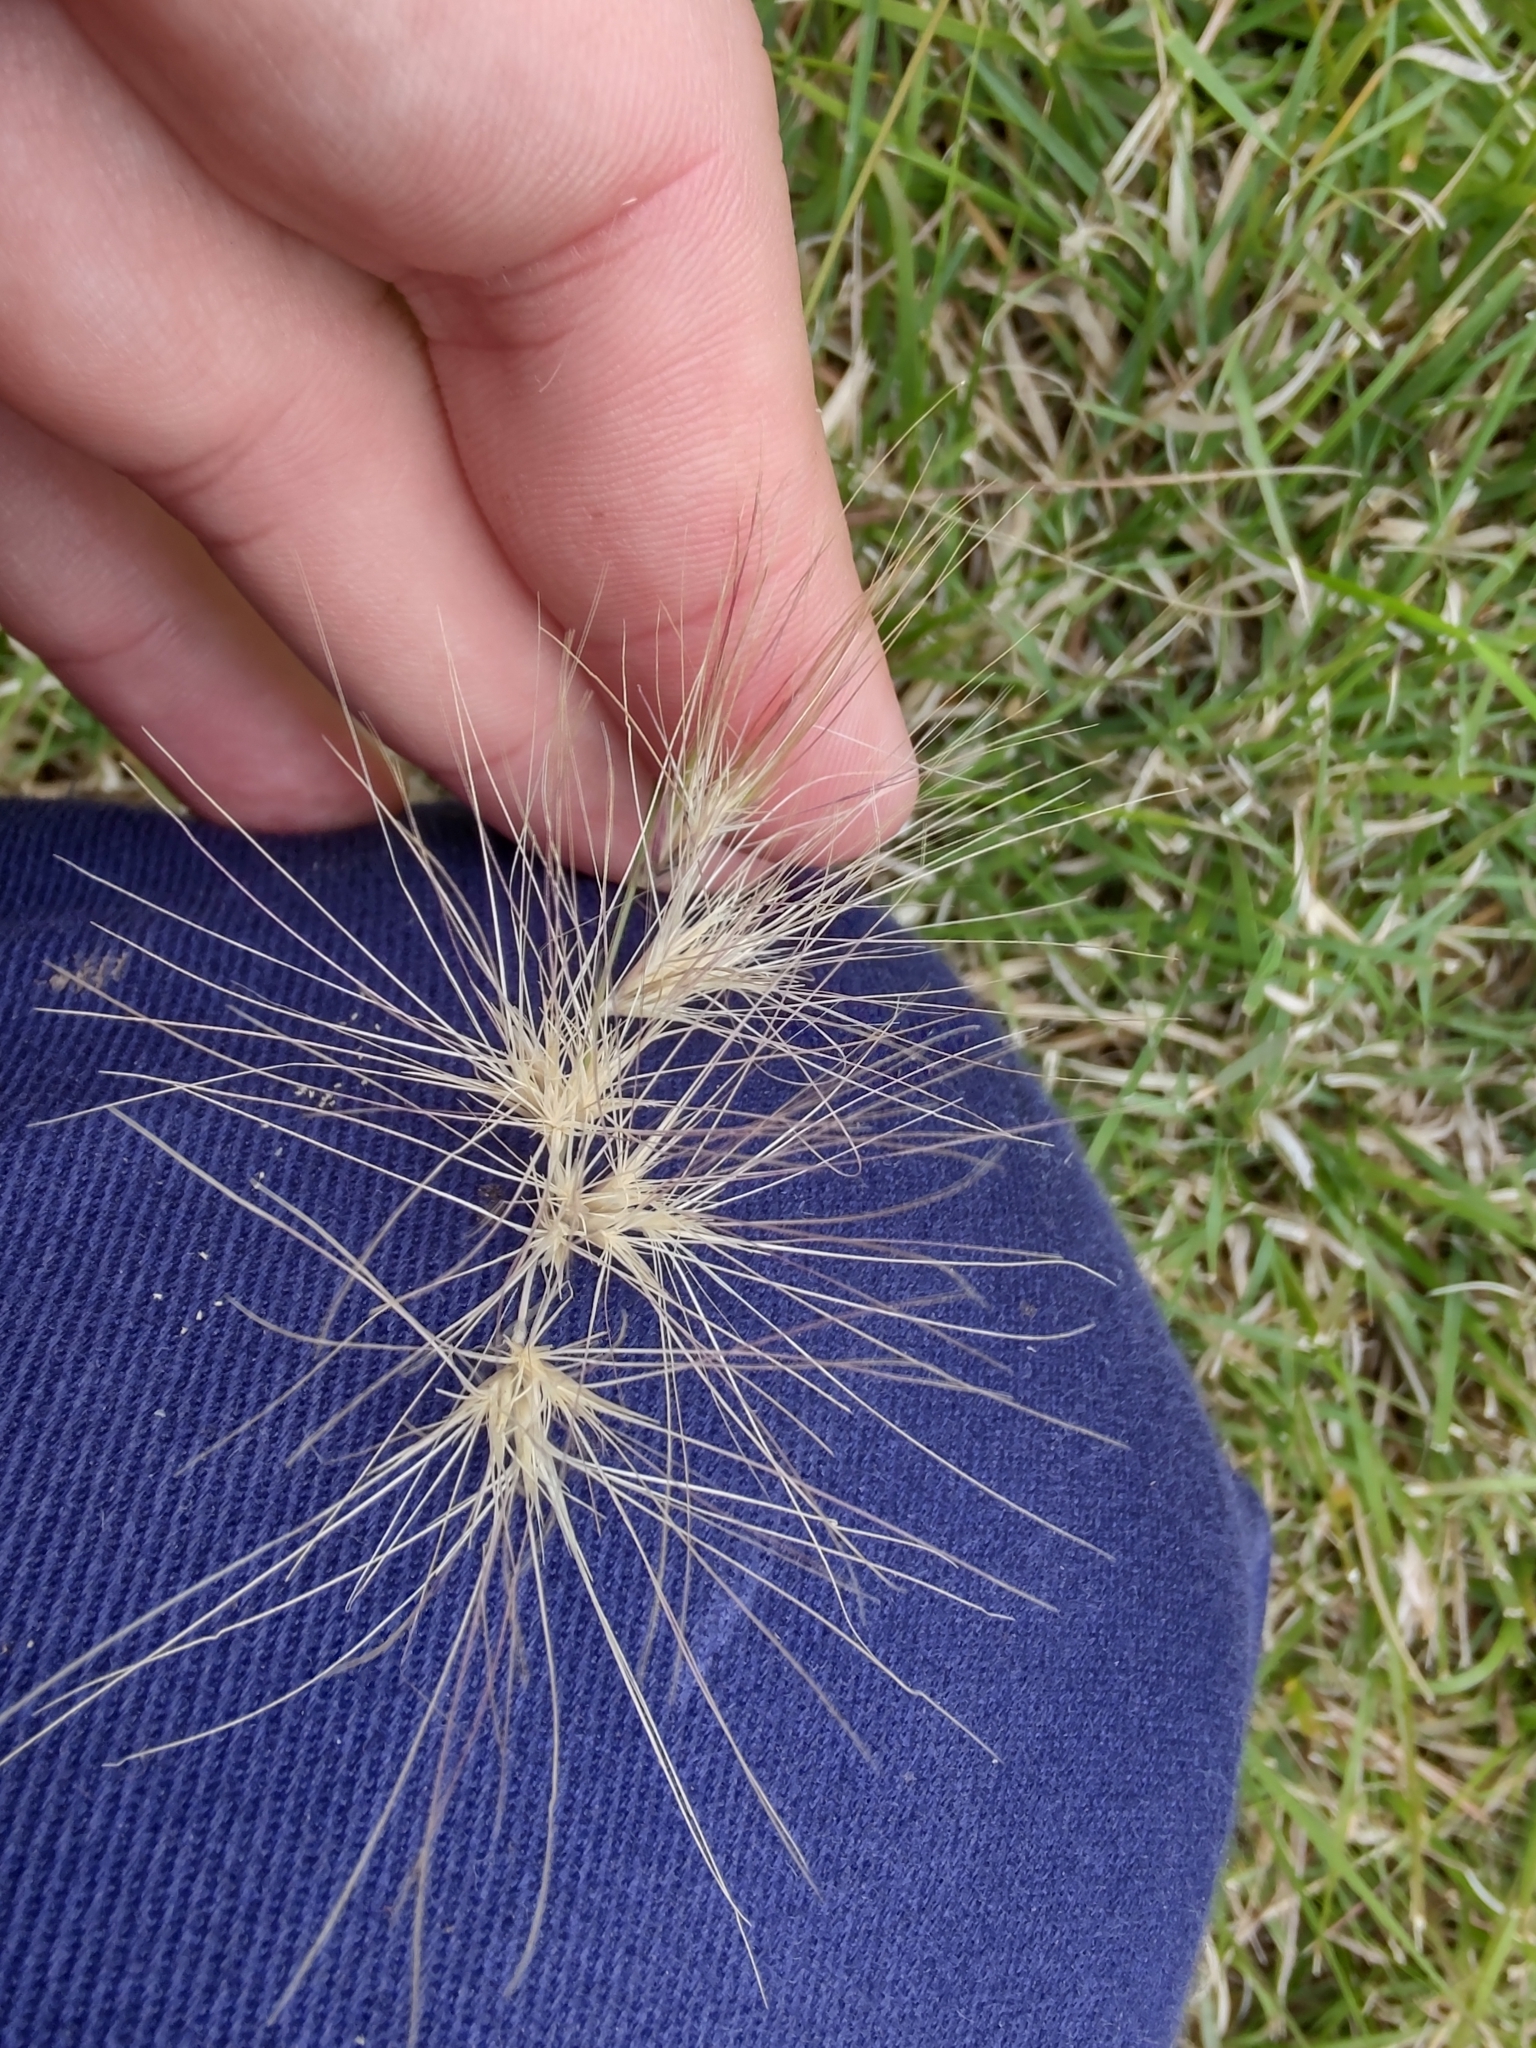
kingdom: Plantae
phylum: Tracheophyta
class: Liliopsida
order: Poales
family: Poaceae
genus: Bouteloua
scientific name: Bouteloua megapotamica
